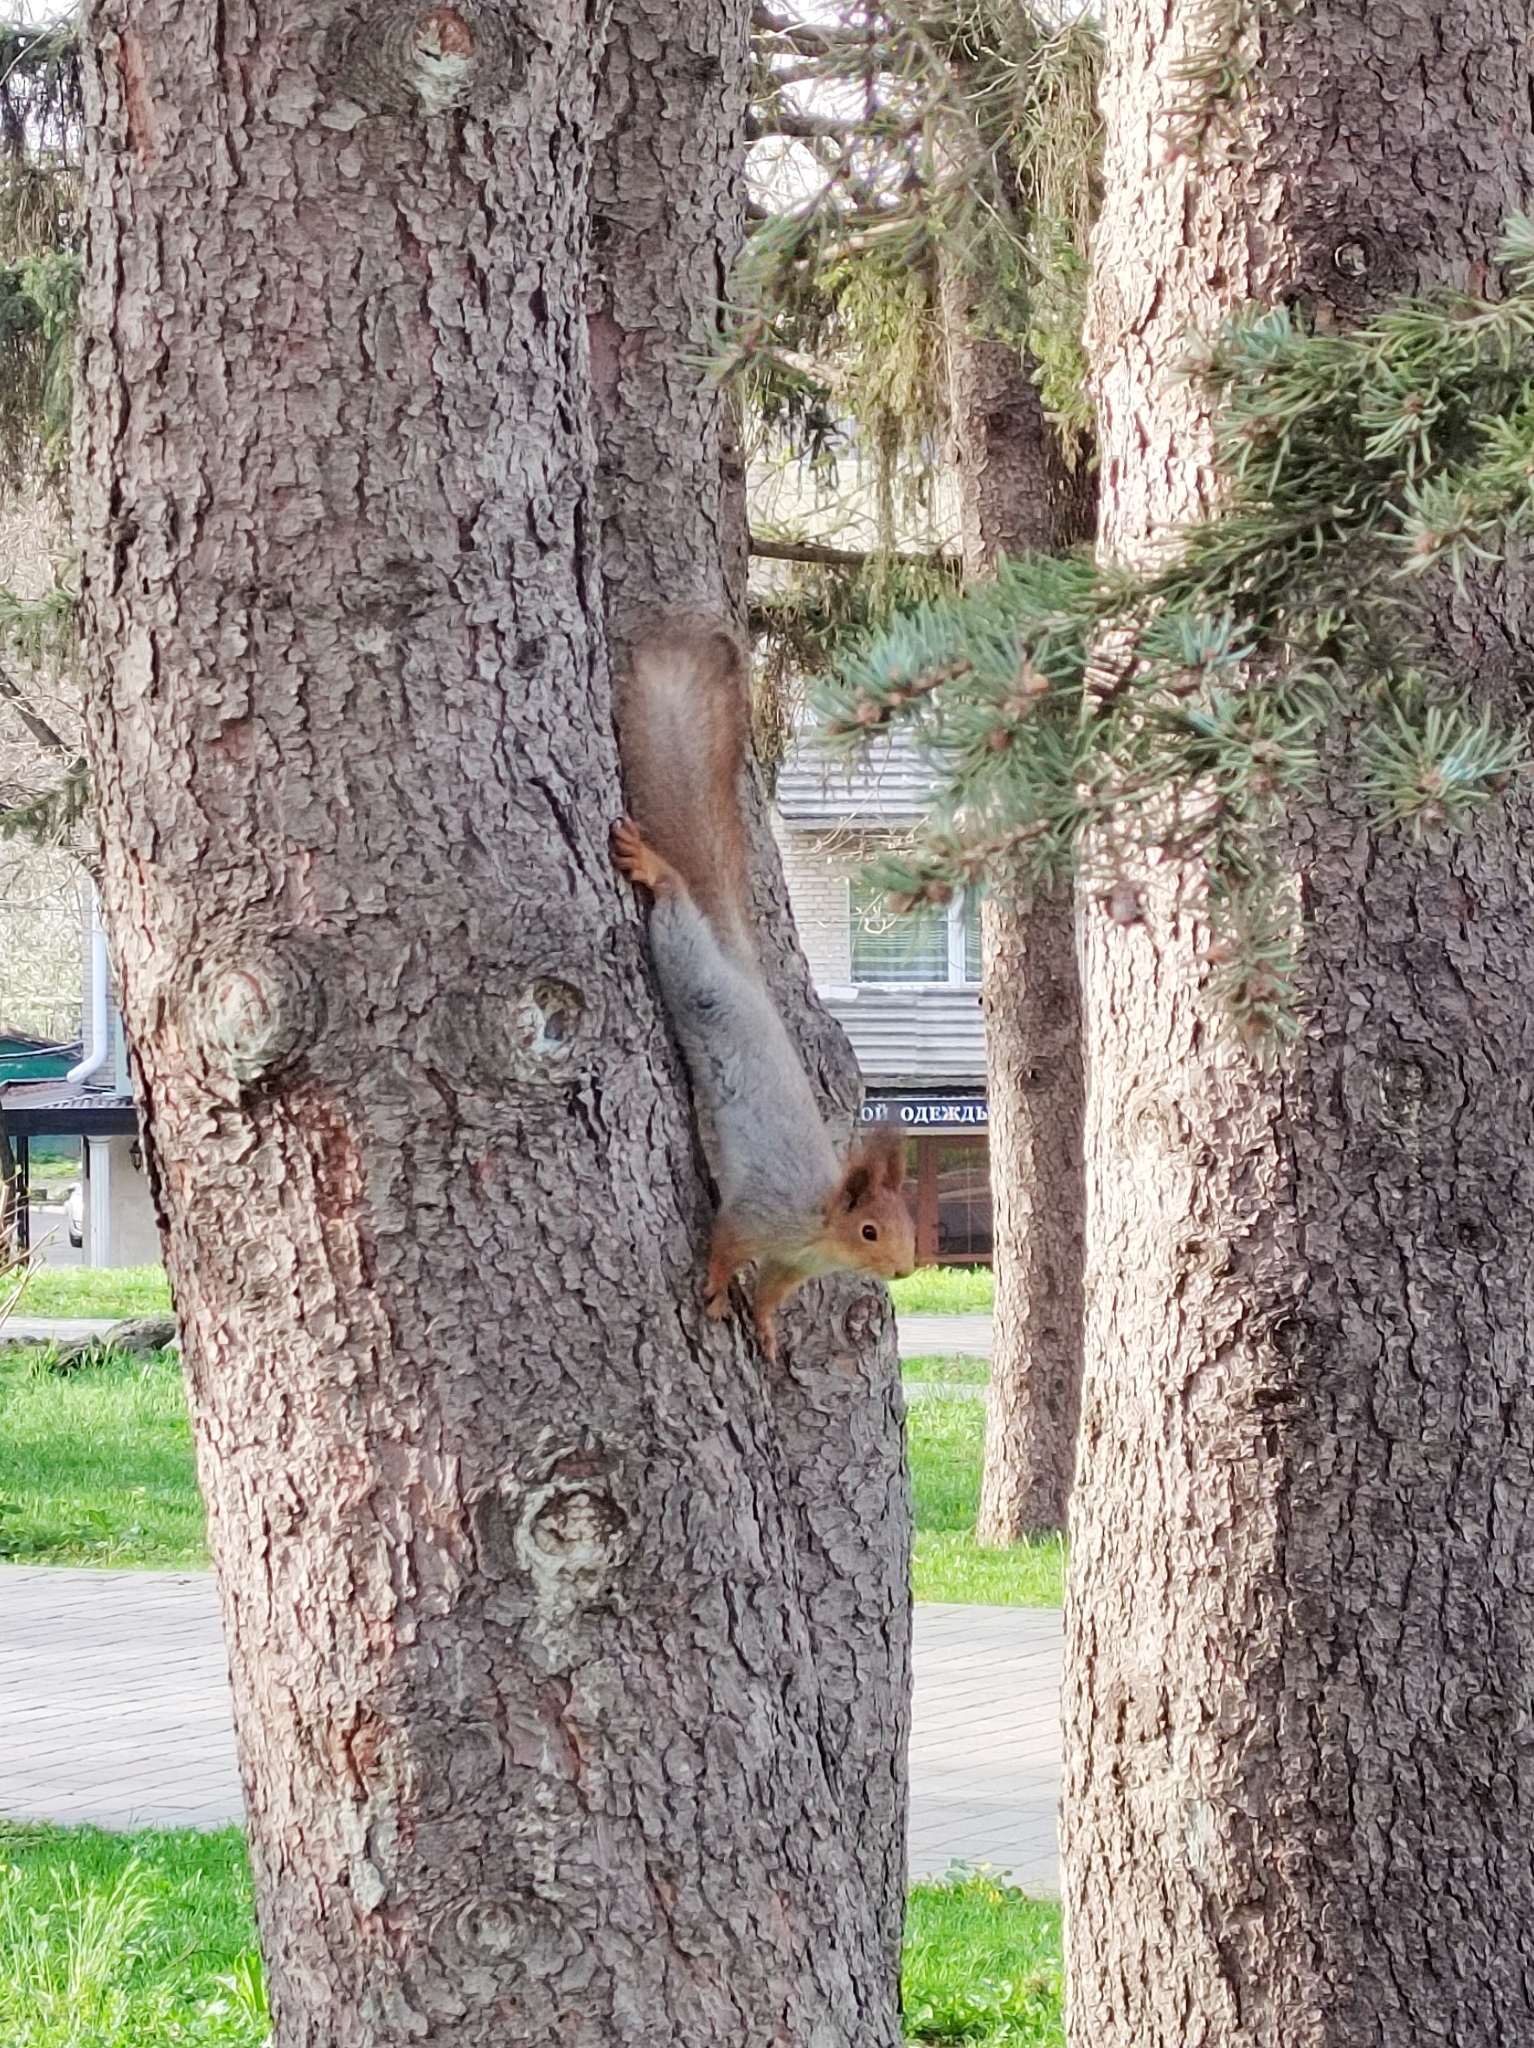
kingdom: Animalia
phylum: Chordata
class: Mammalia
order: Rodentia
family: Sciuridae
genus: Sciurus
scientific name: Sciurus vulgaris
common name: Eurasian red squirrel
